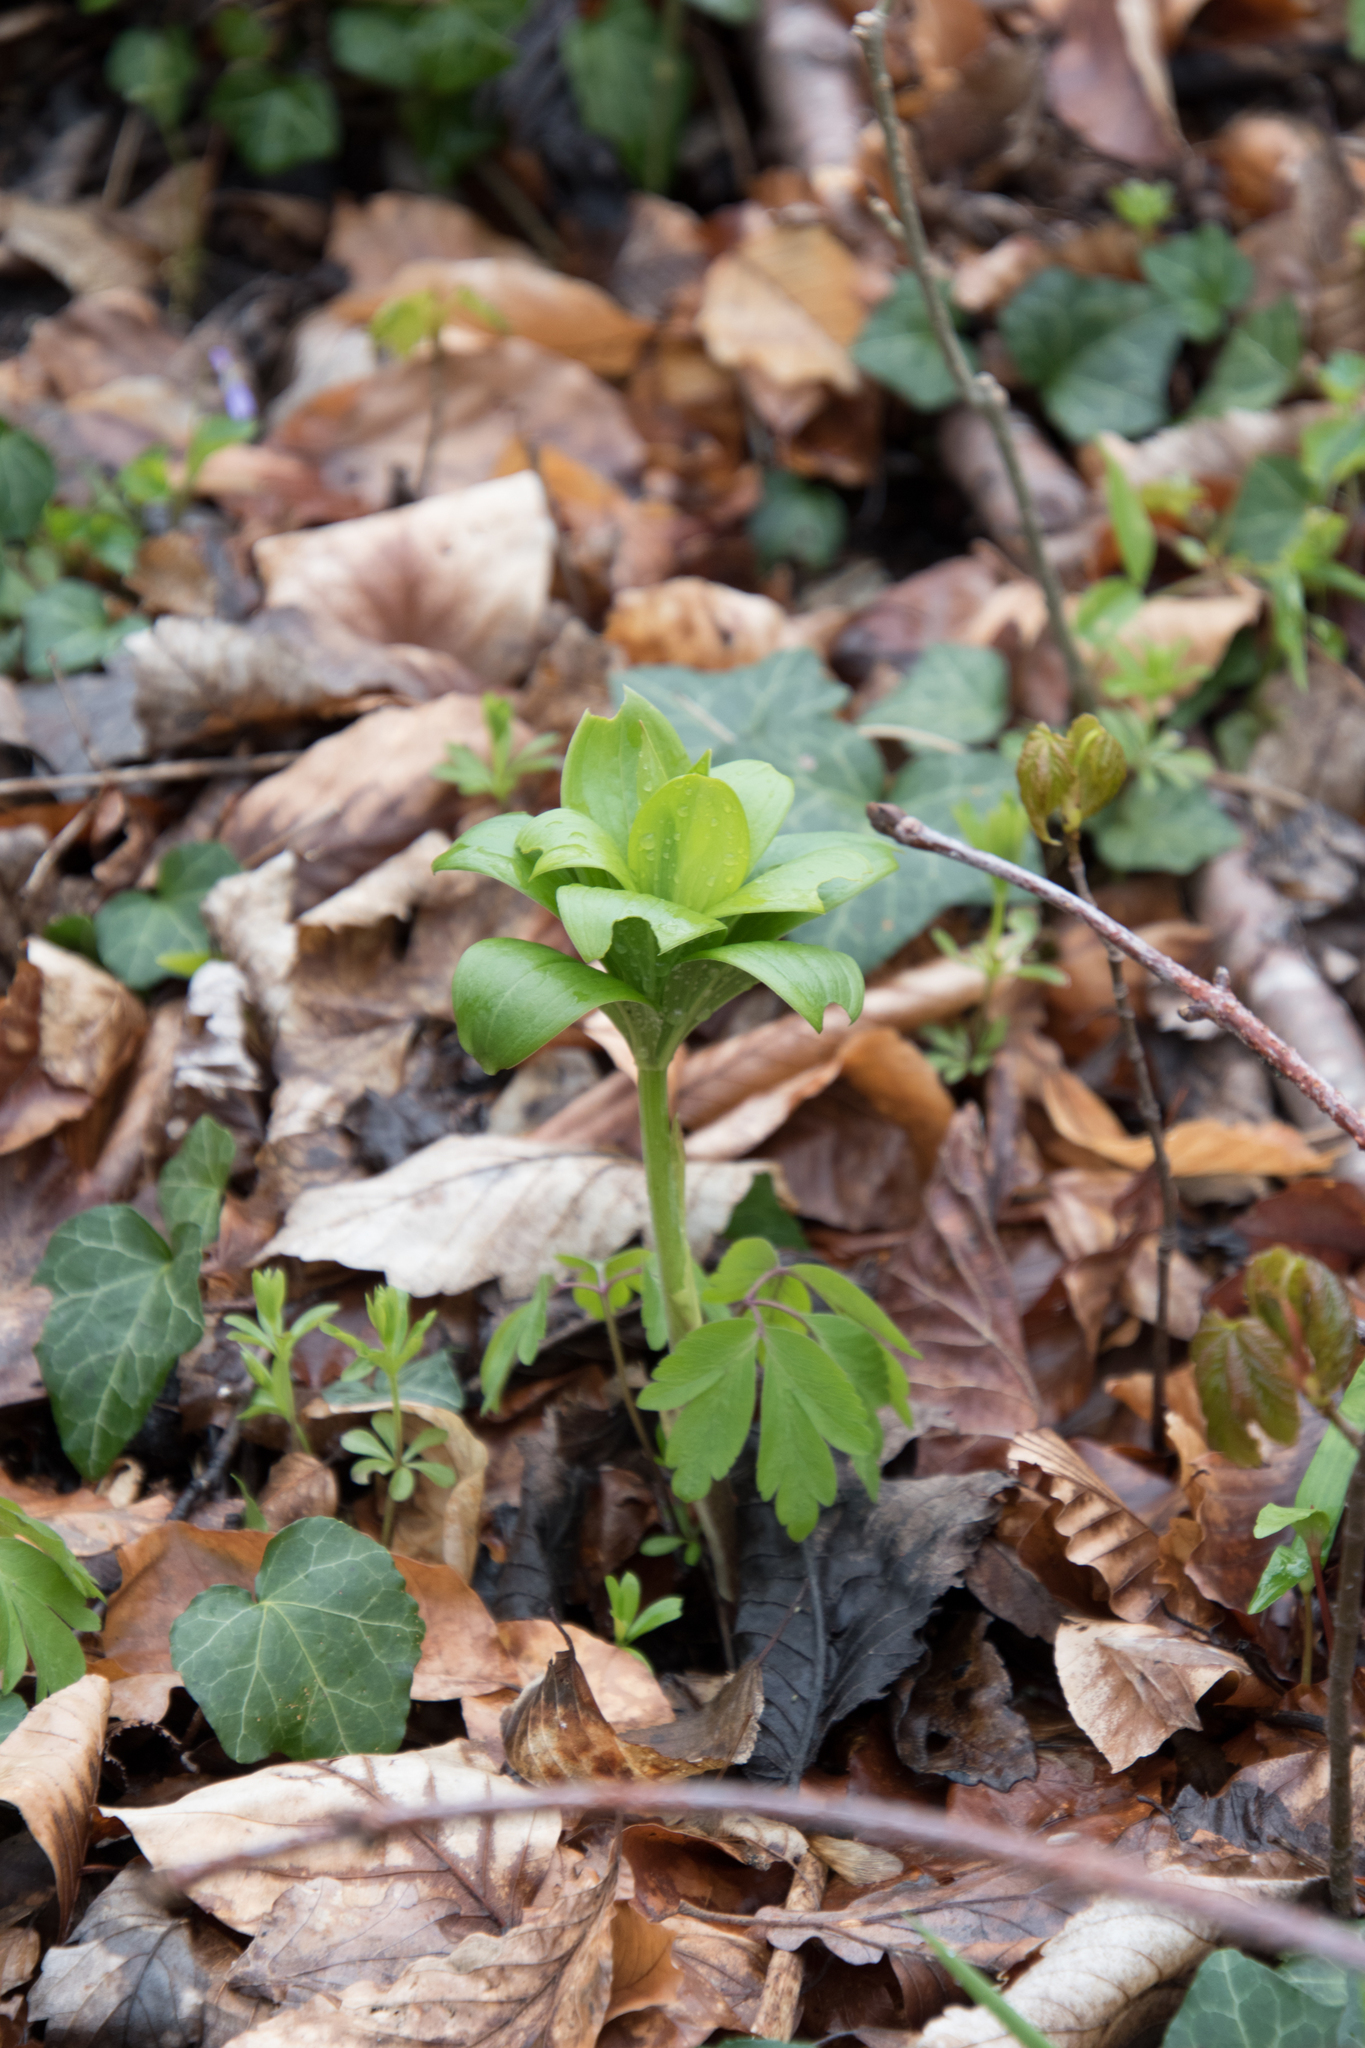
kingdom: Plantae
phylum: Tracheophyta
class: Liliopsida
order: Liliales
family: Liliaceae
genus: Lilium
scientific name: Lilium martagon
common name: Martagon lily
